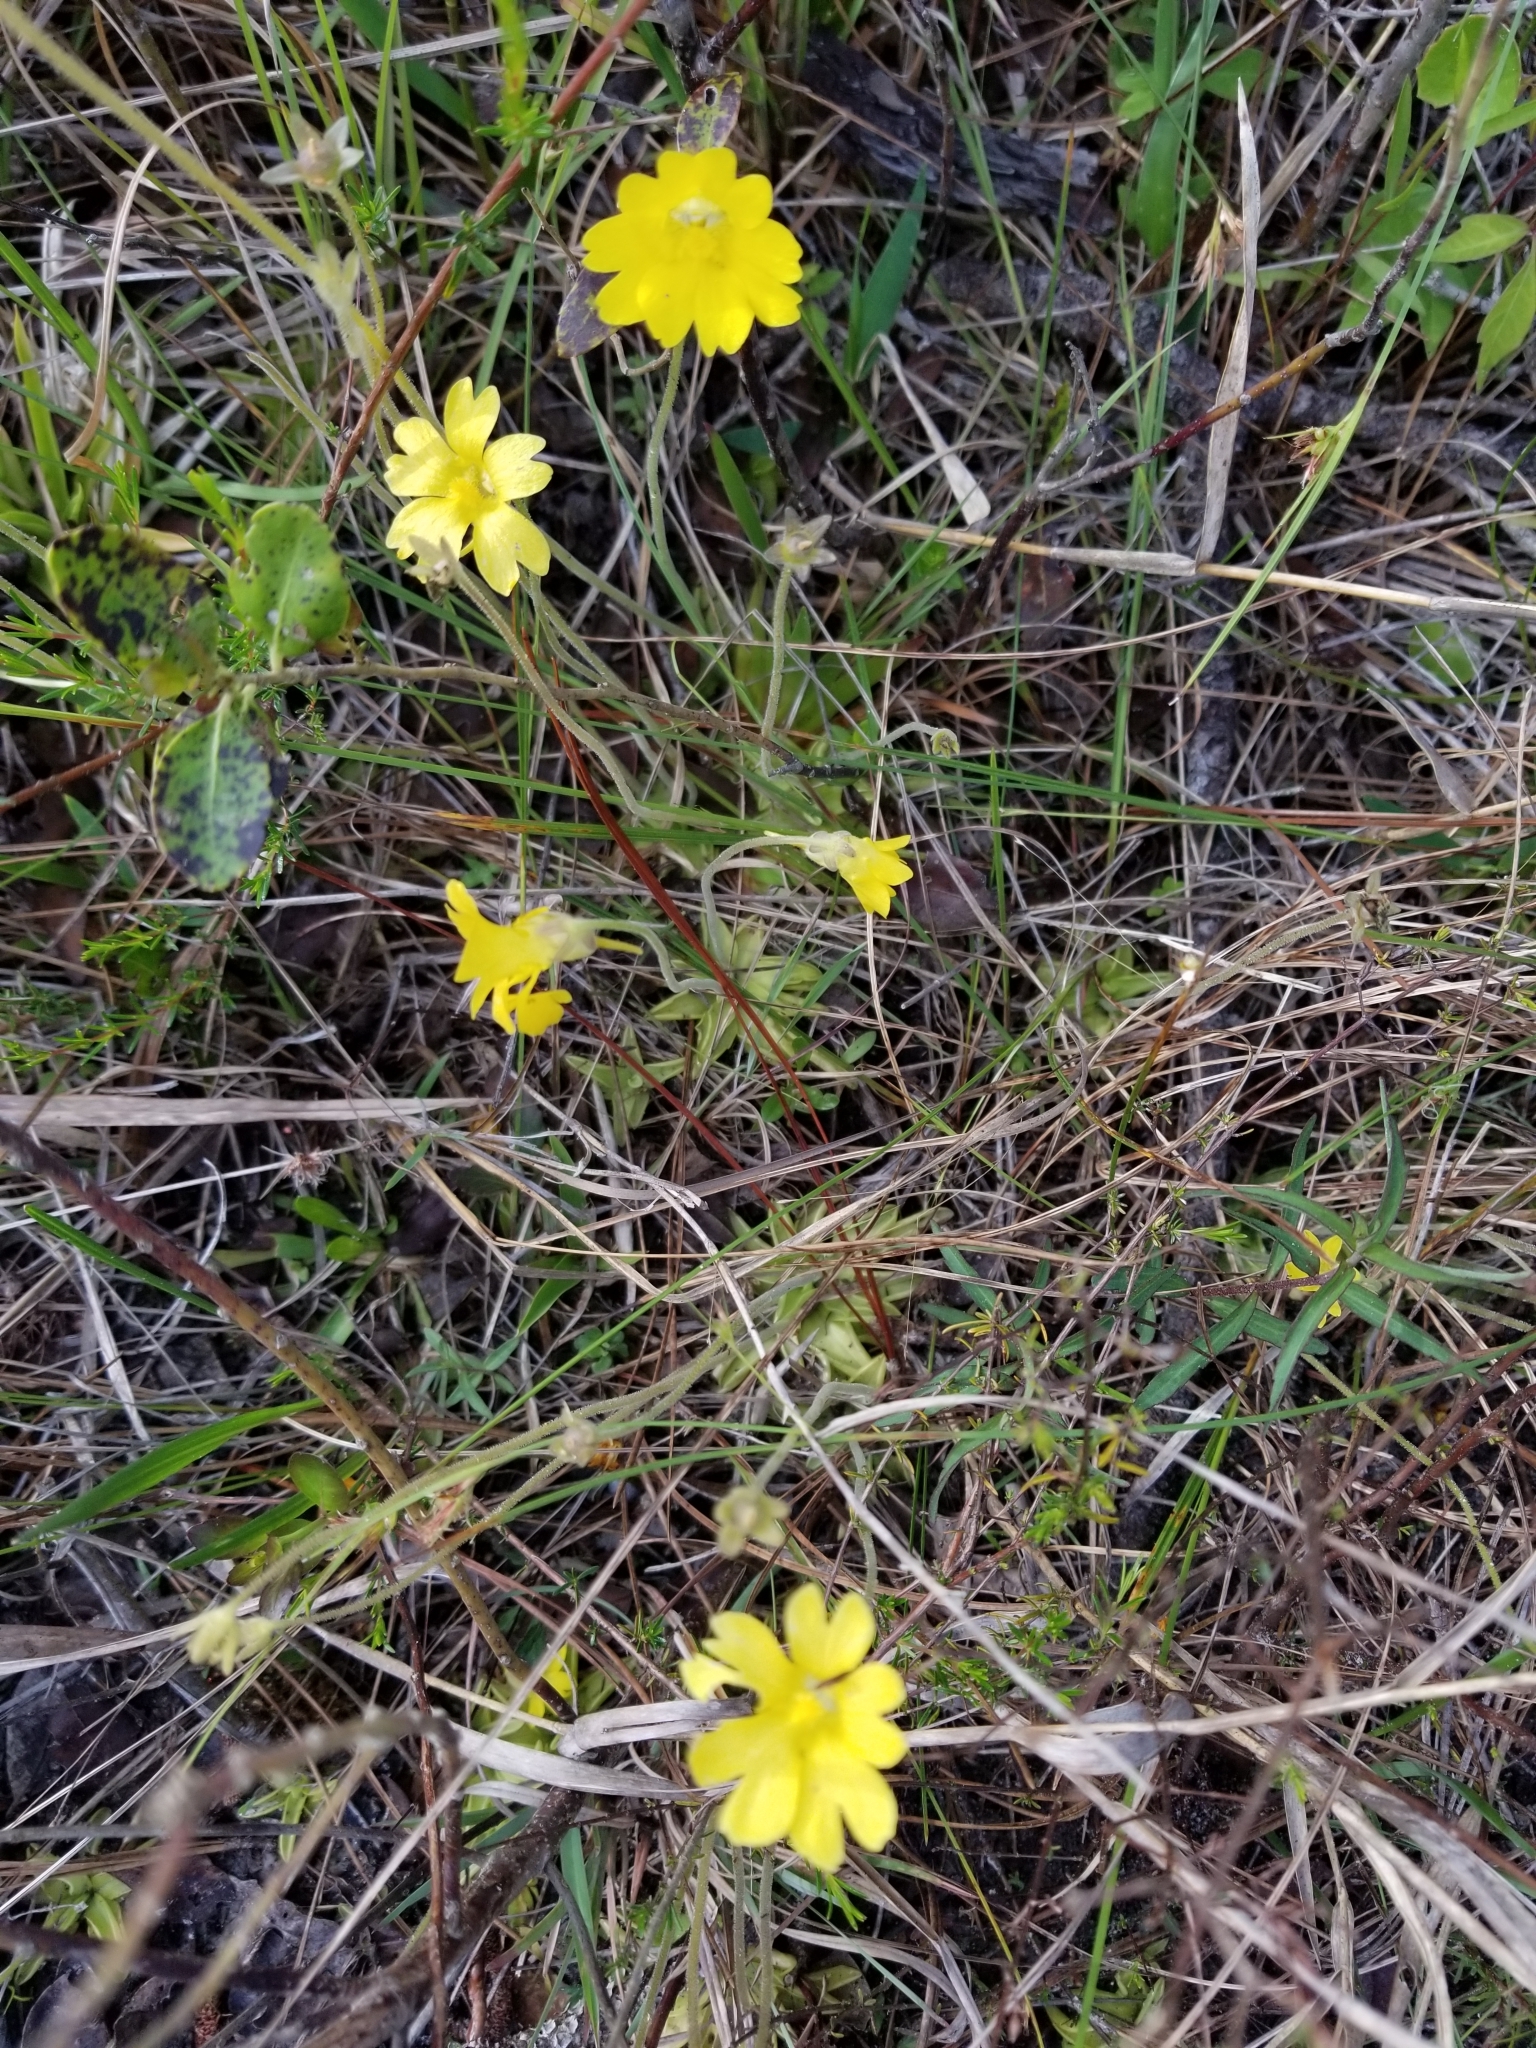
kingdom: Plantae
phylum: Tracheophyta
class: Magnoliopsida
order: Lamiales
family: Lentibulariaceae
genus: Pinguicula
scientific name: Pinguicula lutea
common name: Yellow butterwort
